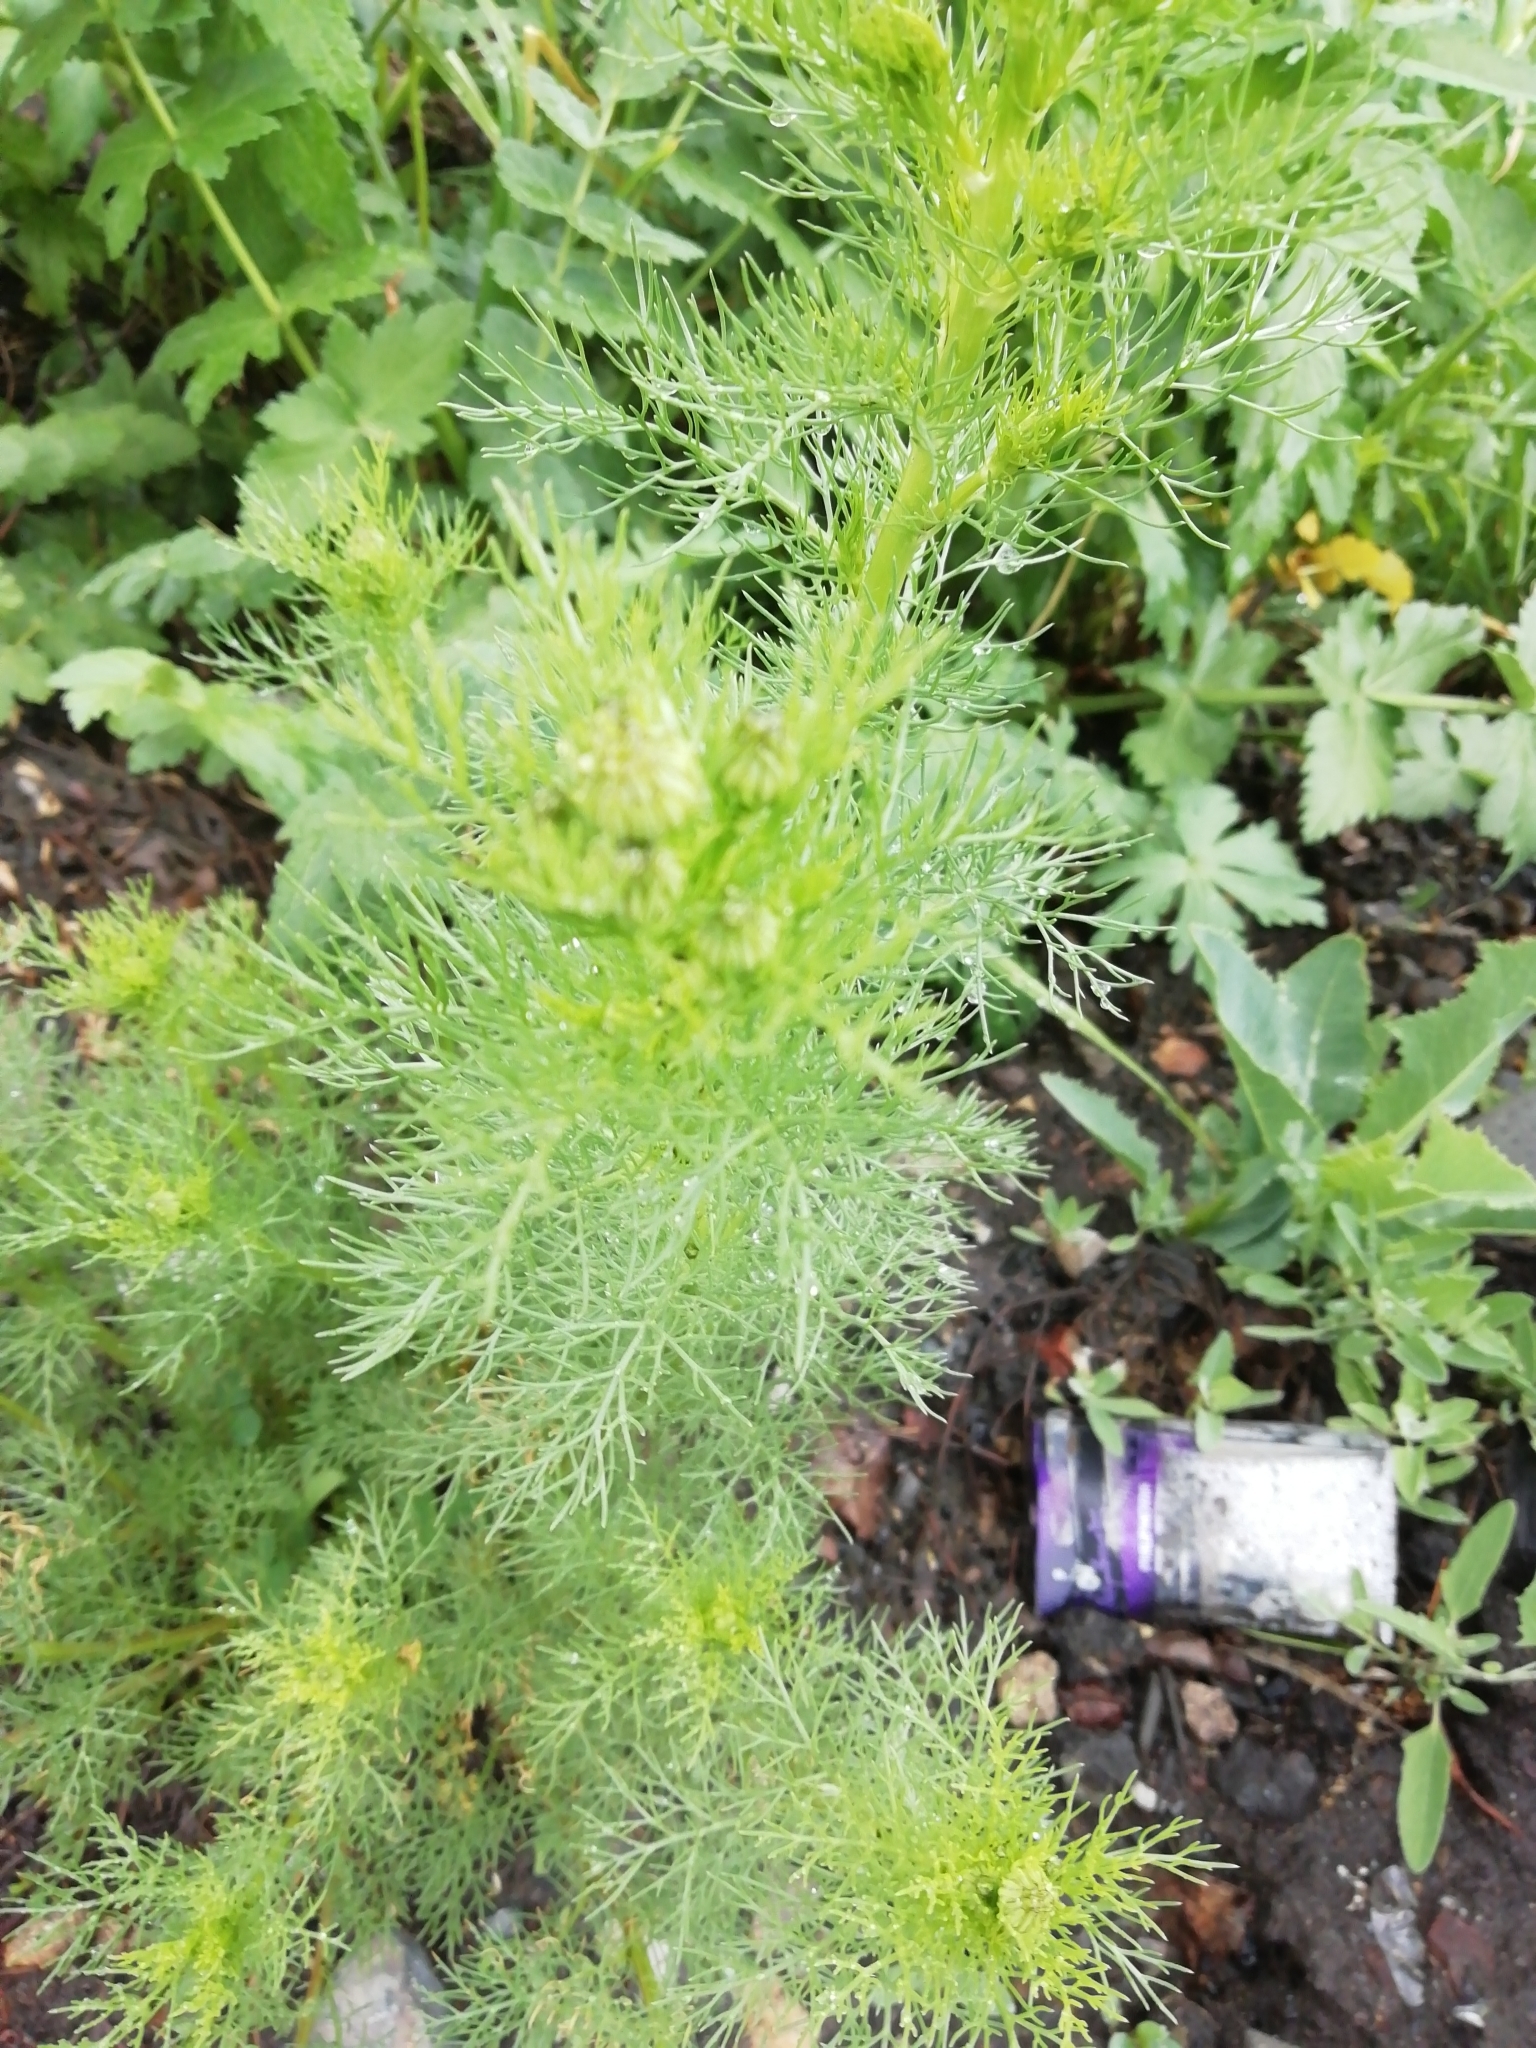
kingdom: Plantae
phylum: Tracheophyta
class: Magnoliopsida
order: Asterales
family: Asteraceae
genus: Tripleurospermum
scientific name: Tripleurospermum inodorum
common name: Scentless mayweed
